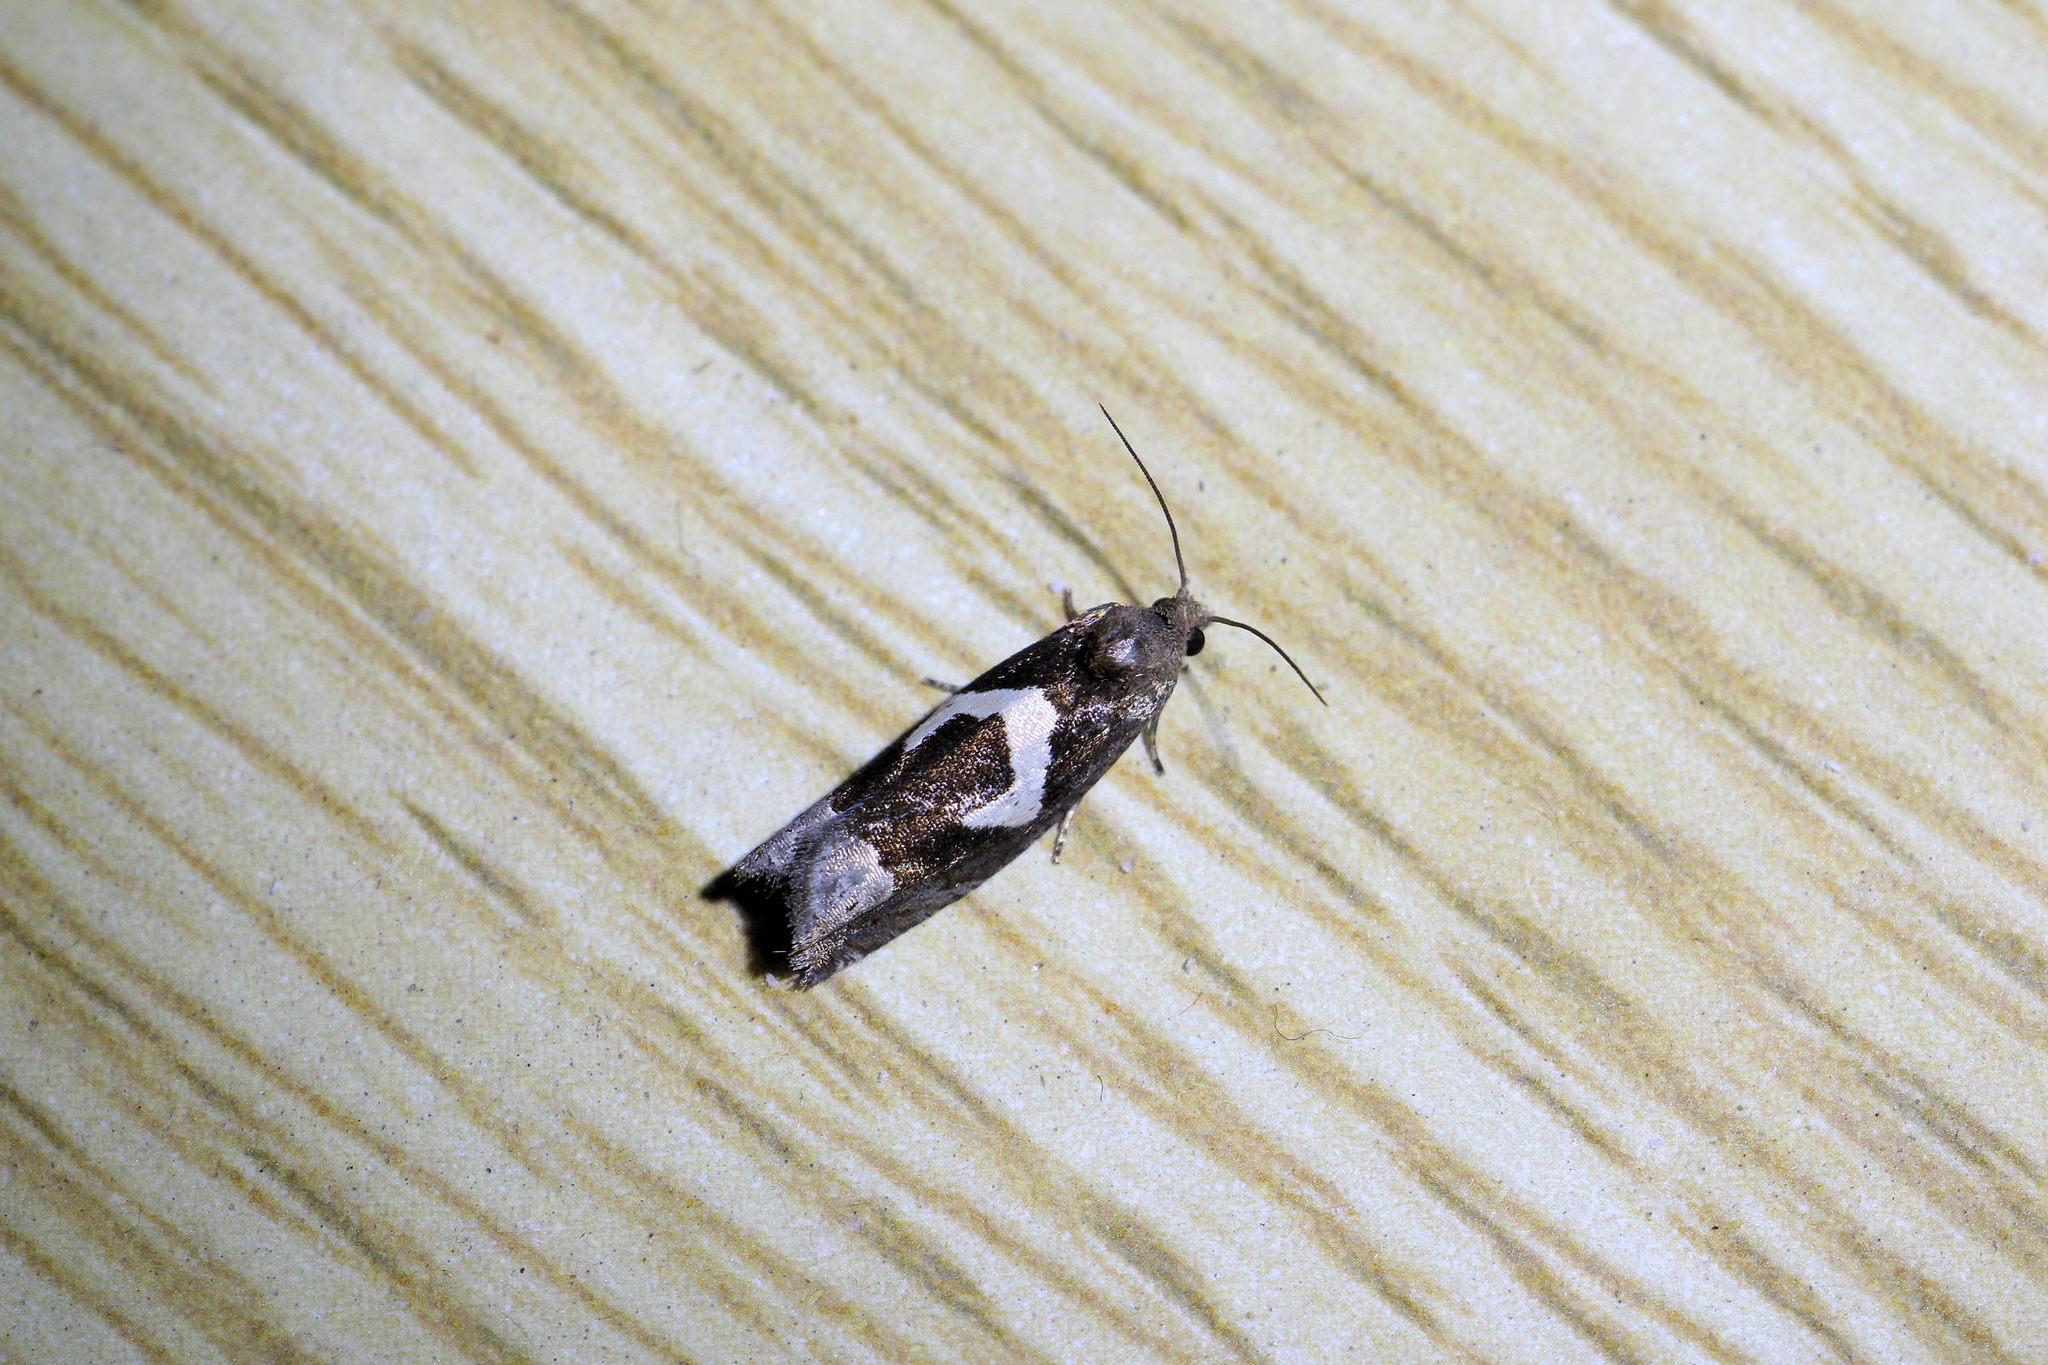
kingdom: Animalia
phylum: Arthropoda
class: Insecta
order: Lepidoptera
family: Tortricidae
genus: Epiblema
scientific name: Epiblema foenella
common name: White-foot bell
